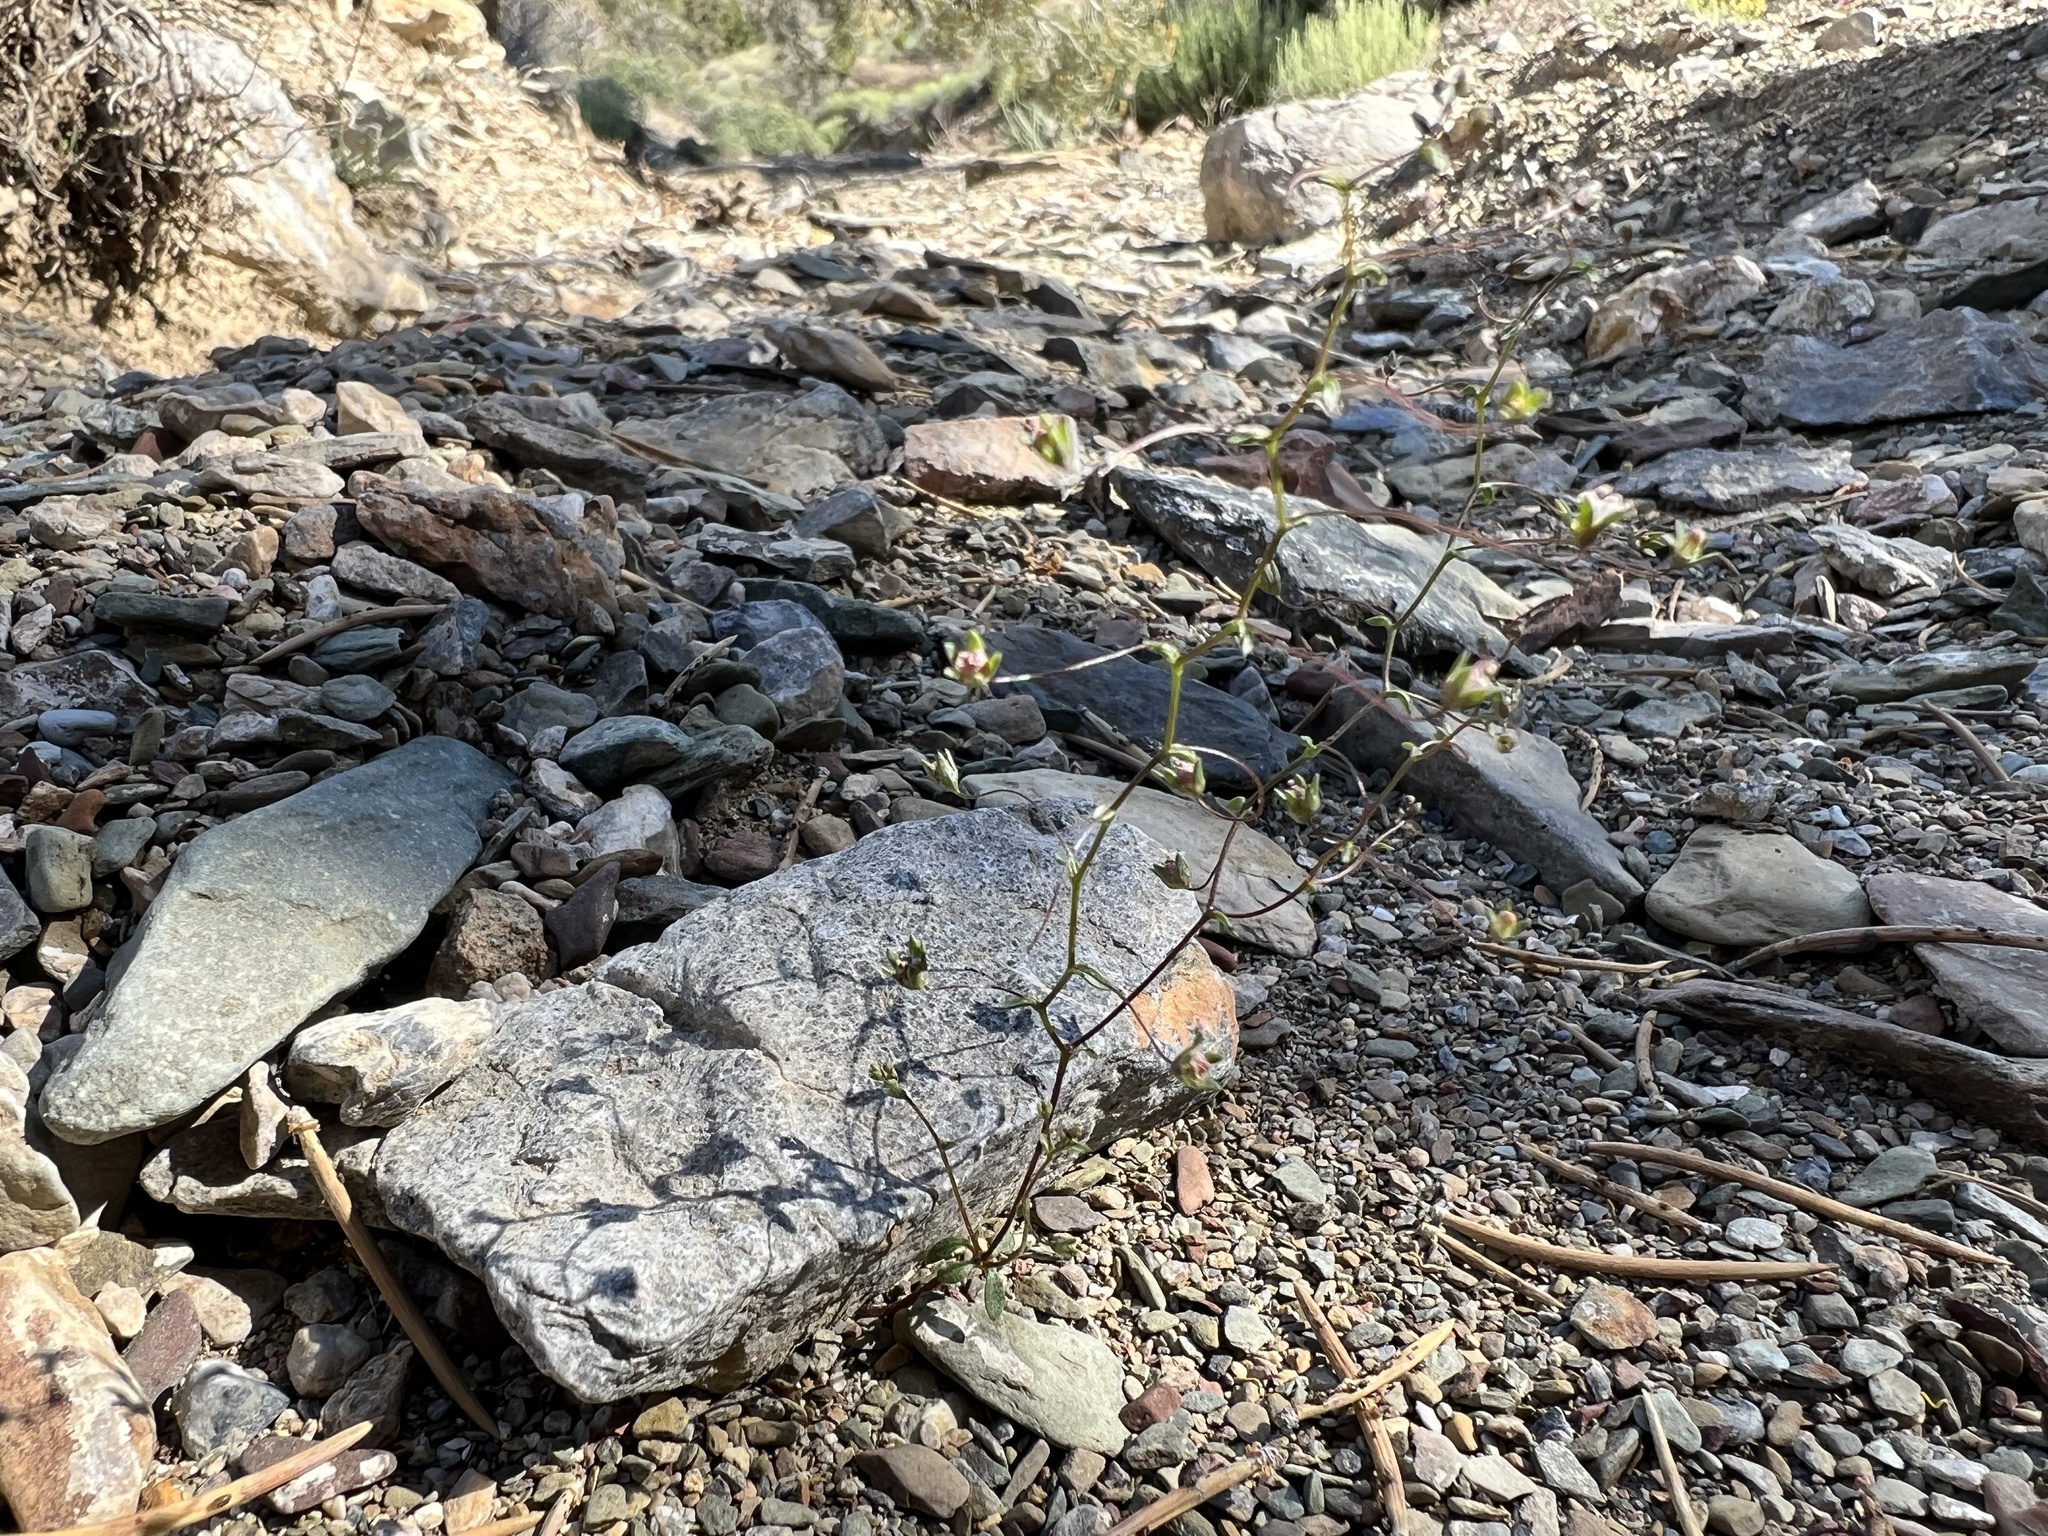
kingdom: Plantae
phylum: Tracheophyta
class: Magnoliopsida
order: Asterales
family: Campanulaceae
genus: Nemacladus
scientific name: Nemacladus inyoensis
